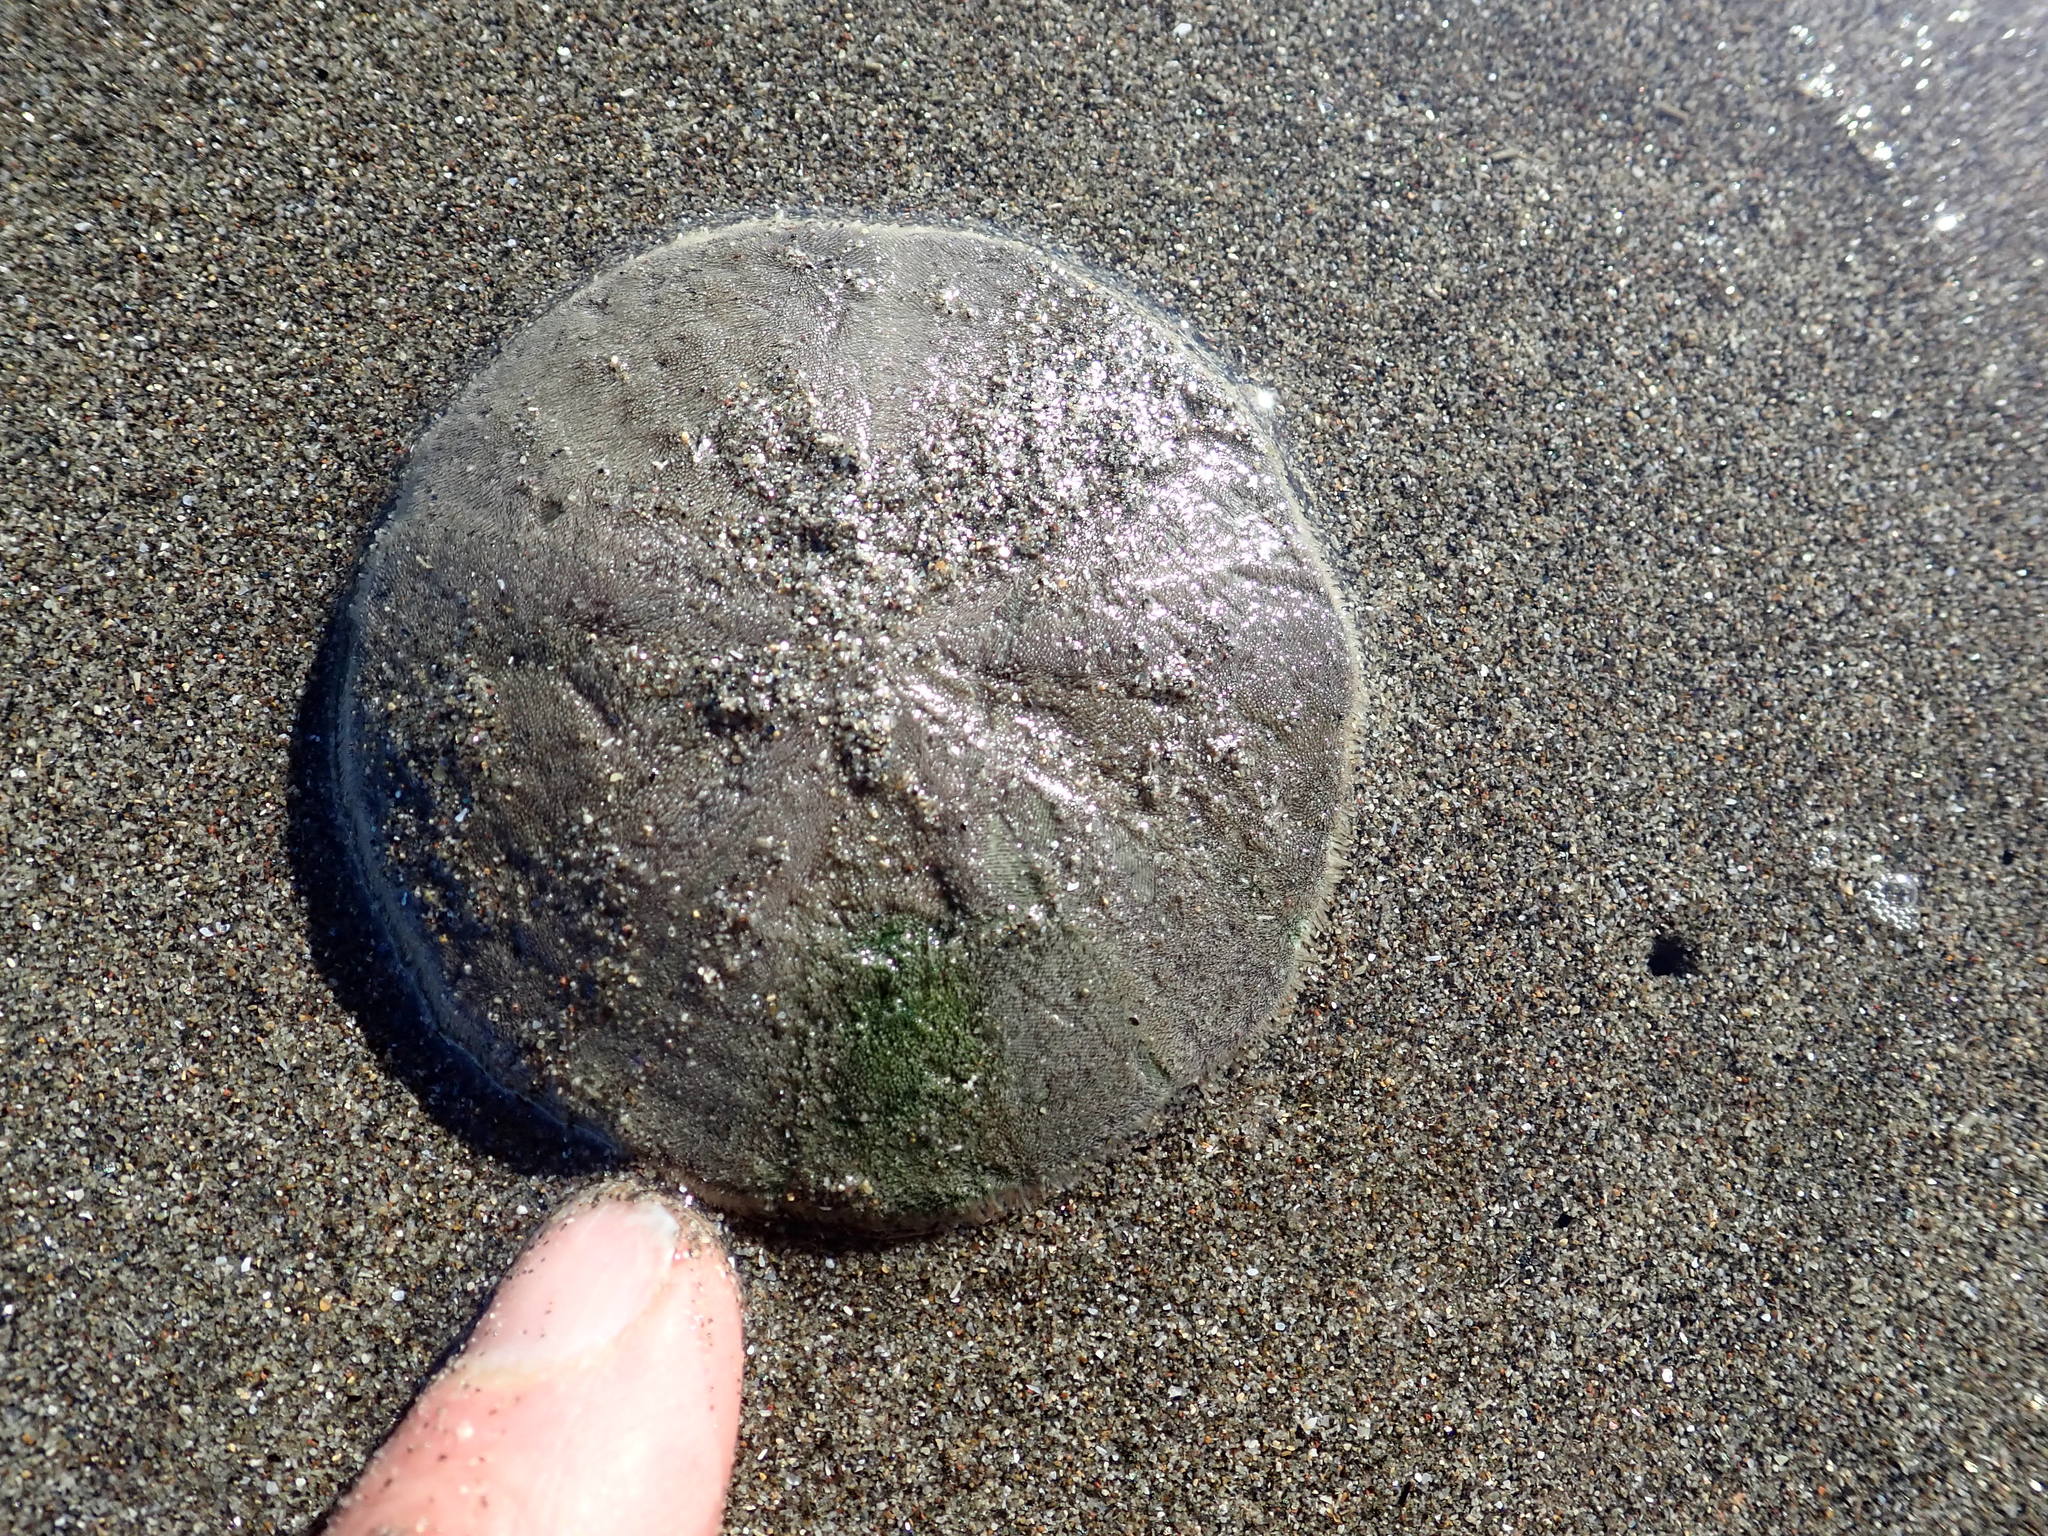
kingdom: Animalia
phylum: Echinodermata
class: Echinoidea
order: Clypeasteroida
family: Clypeasteridae
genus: Fellaster
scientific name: Fellaster zelandiae
